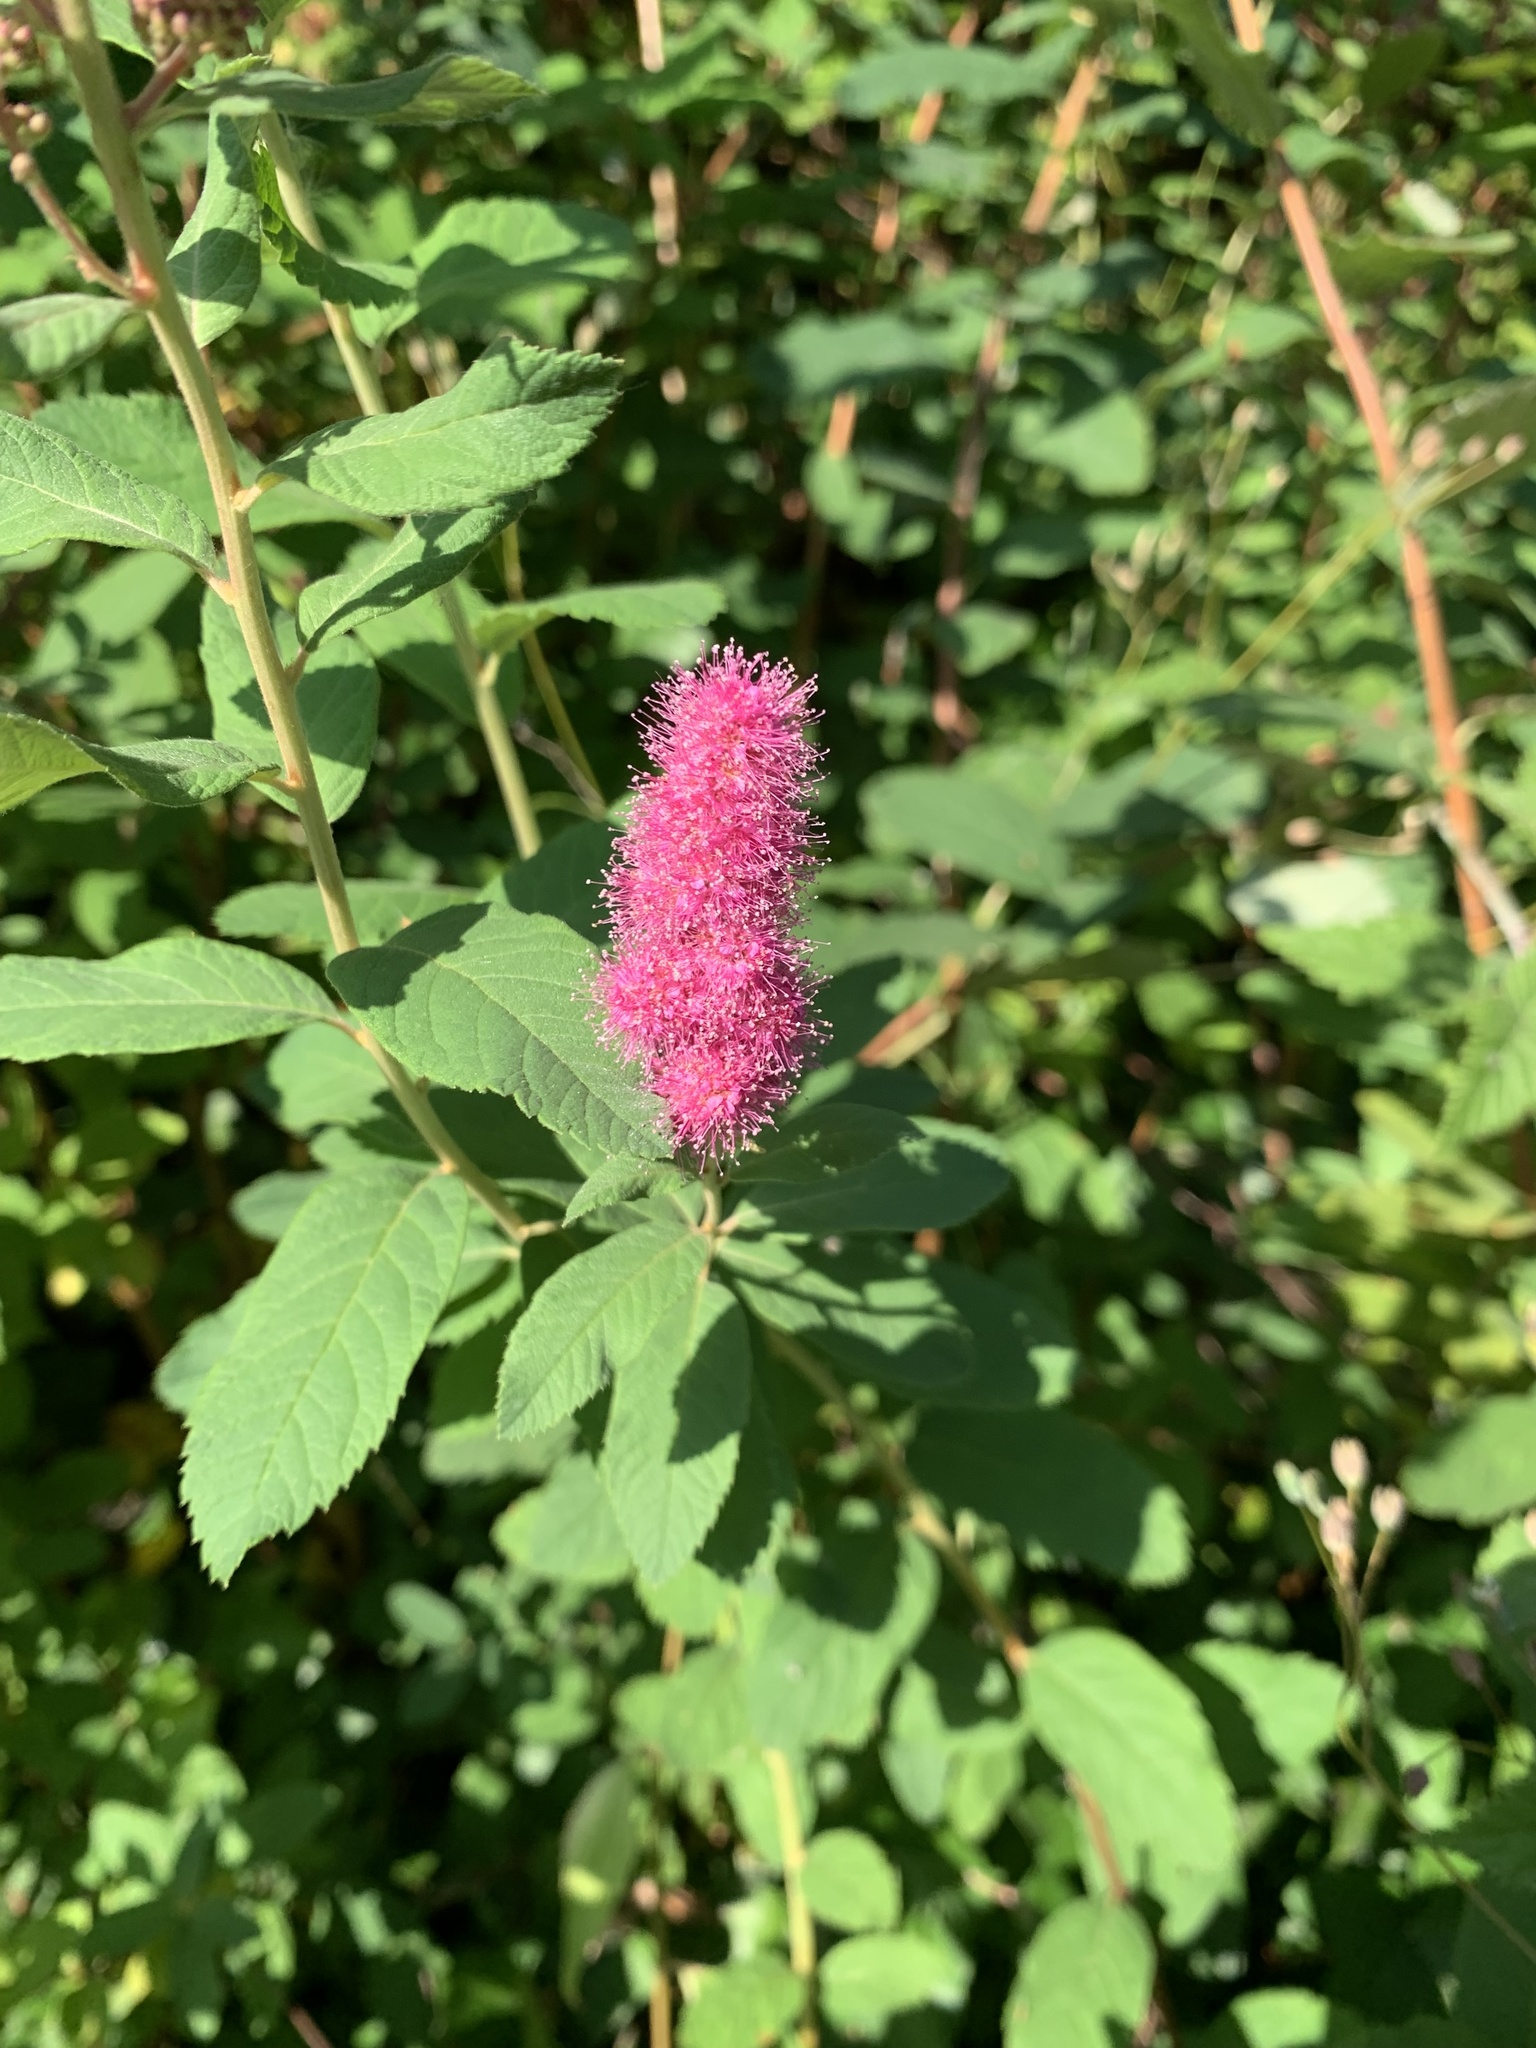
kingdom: Plantae
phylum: Tracheophyta
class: Magnoliopsida
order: Rosales
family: Rosaceae
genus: Spiraea
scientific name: Spiraea douglasii
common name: Steeplebush
